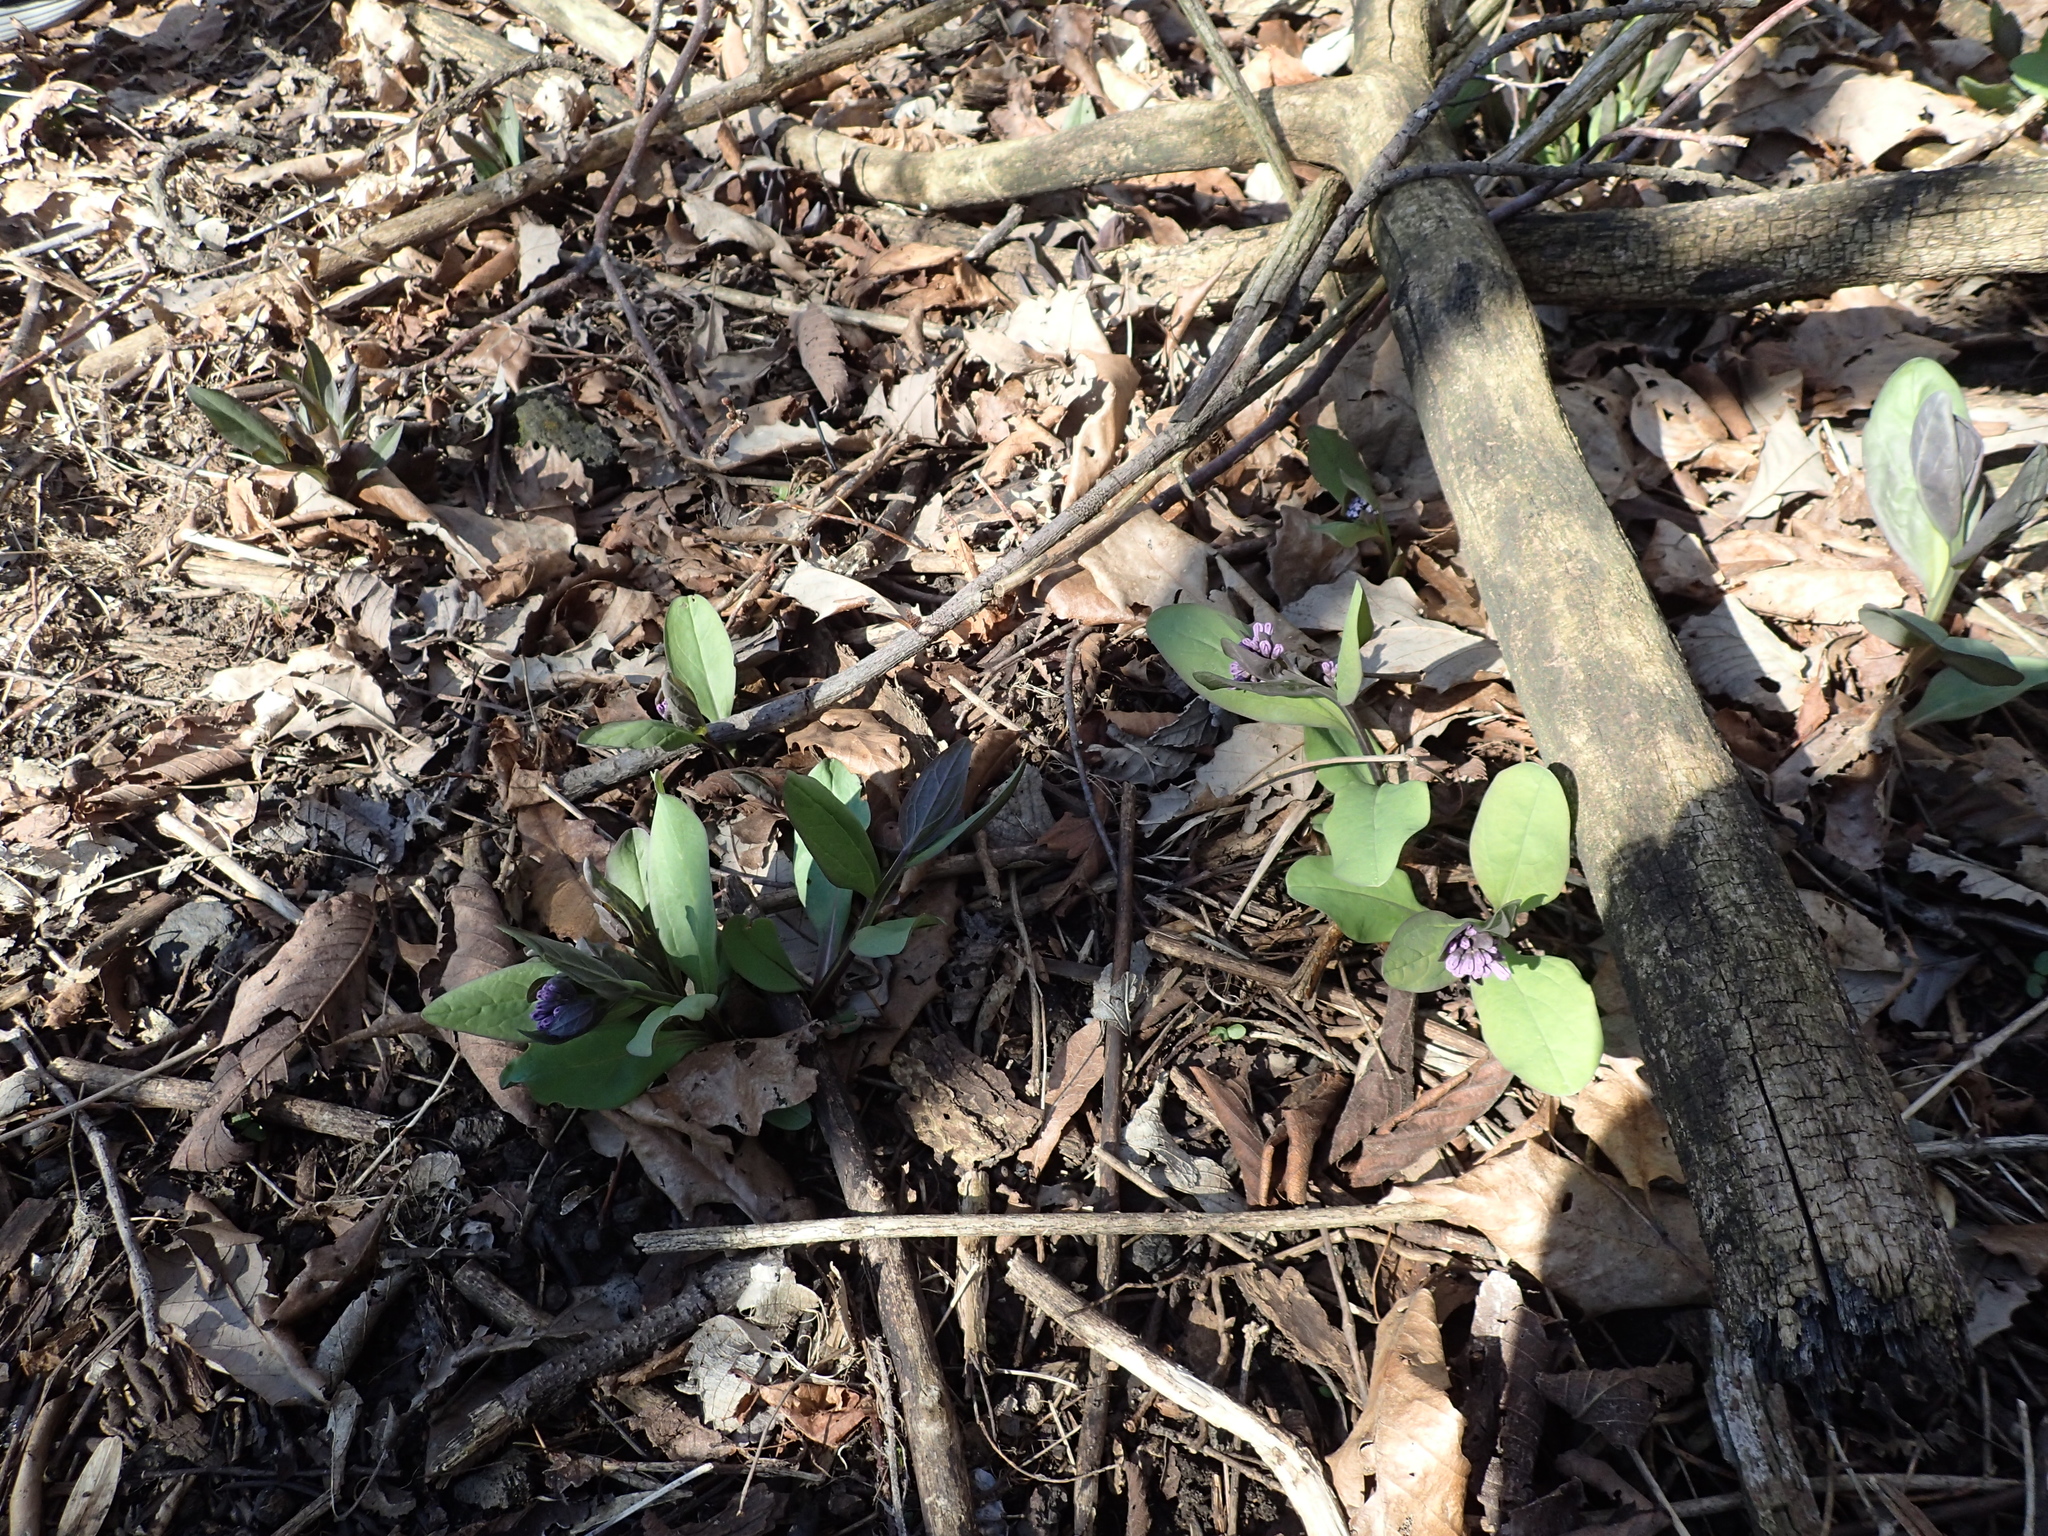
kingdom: Plantae
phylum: Tracheophyta
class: Magnoliopsida
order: Boraginales
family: Boraginaceae
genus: Mertensia
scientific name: Mertensia virginica
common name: Virginia bluebells
